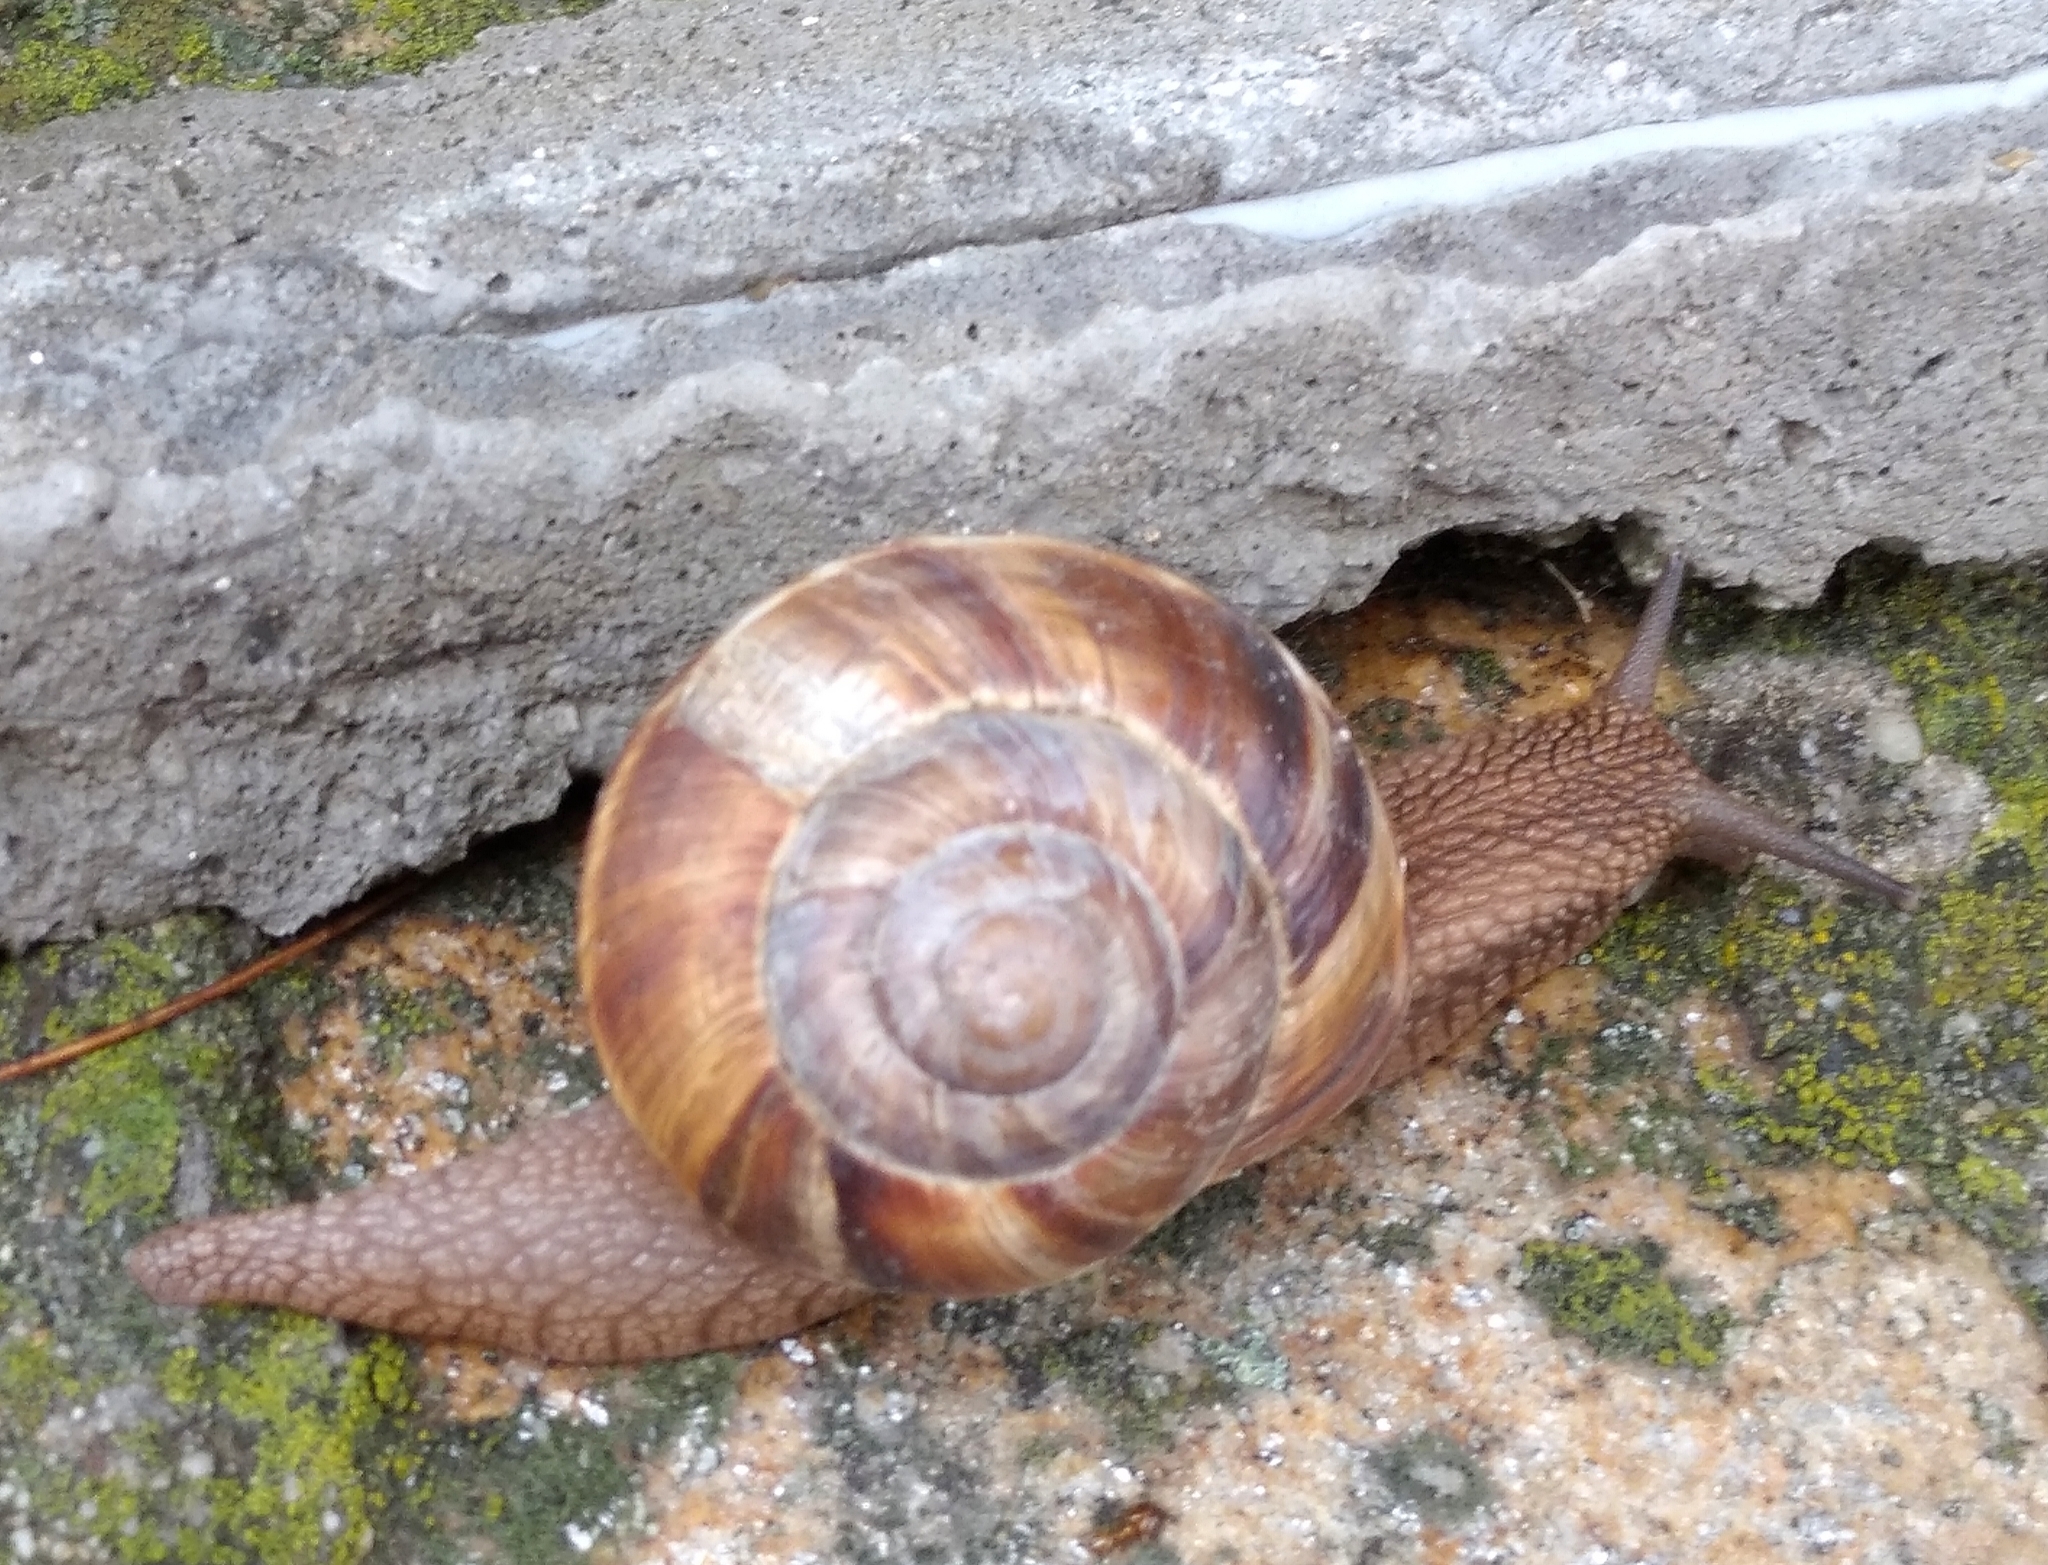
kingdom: Animalia
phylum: Mollusca
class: Gastropoda
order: Stylommatophora
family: Helicidae
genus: Helix
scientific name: Helix lucorum
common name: Turkish snail
